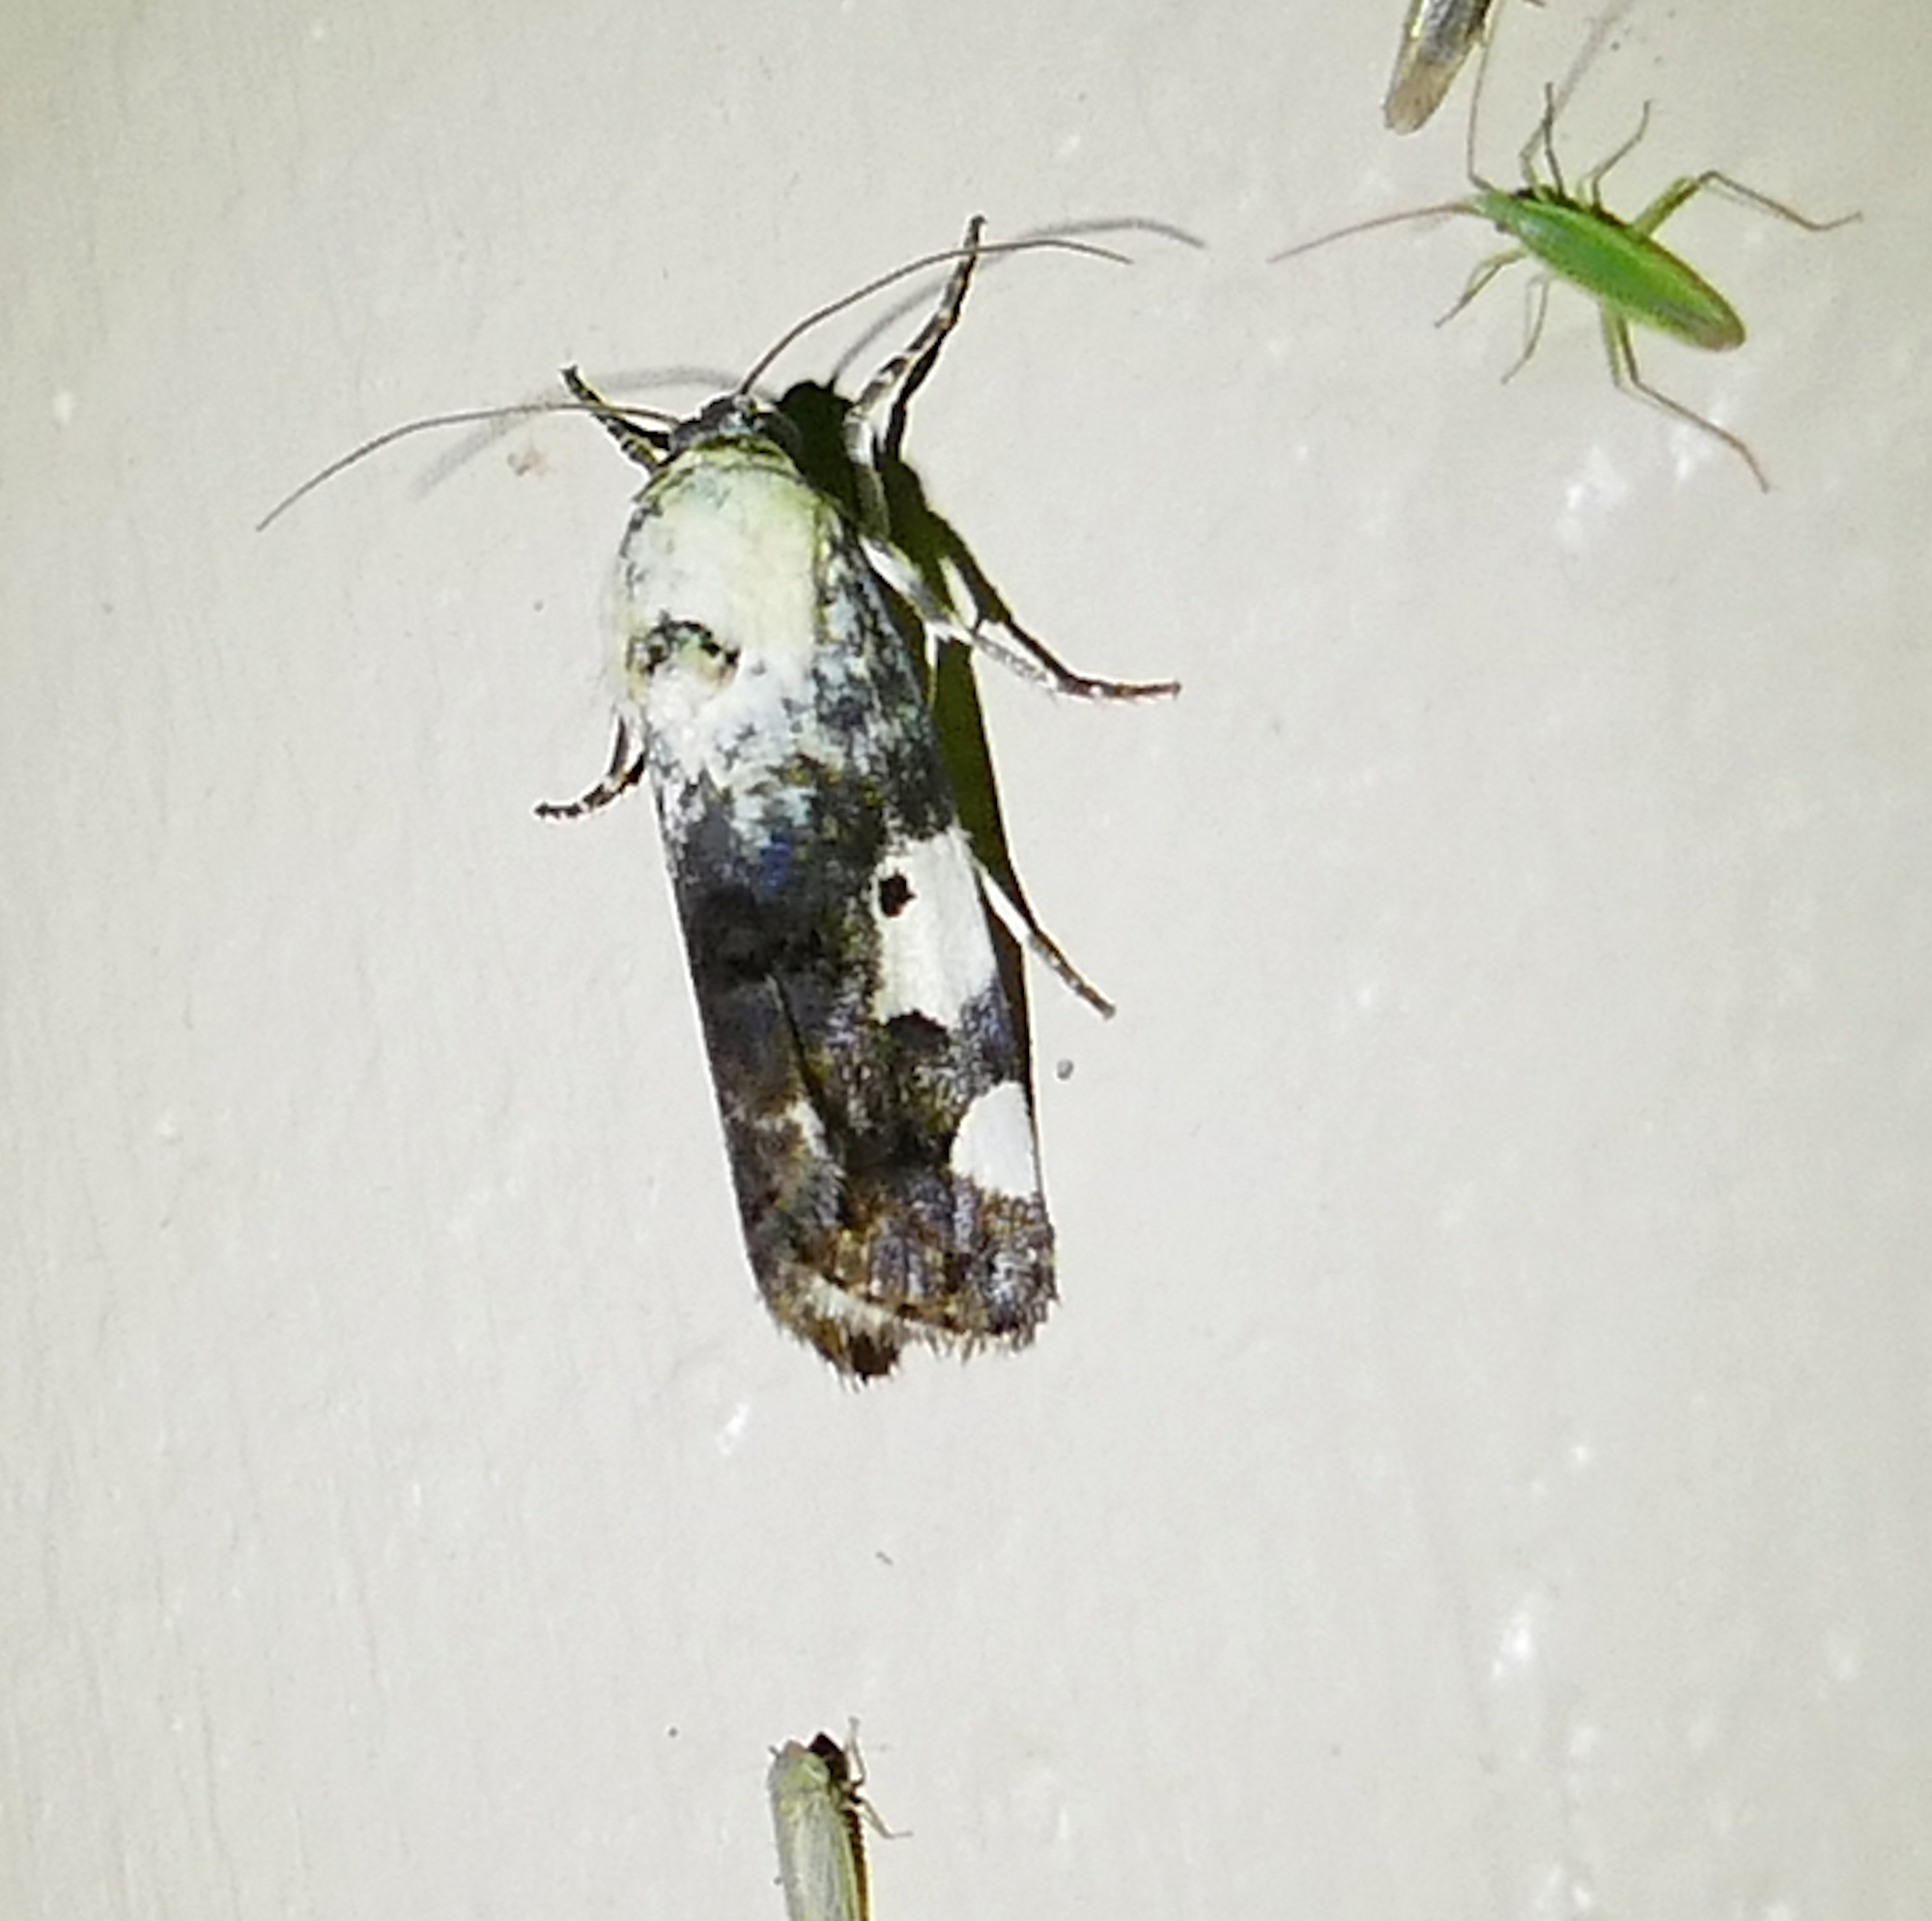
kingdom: Animalia
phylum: Arthropoda
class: Insecta
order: Lepidoptera
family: Noctuidae
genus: Acontia
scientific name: Acontia aprica
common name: Nun
